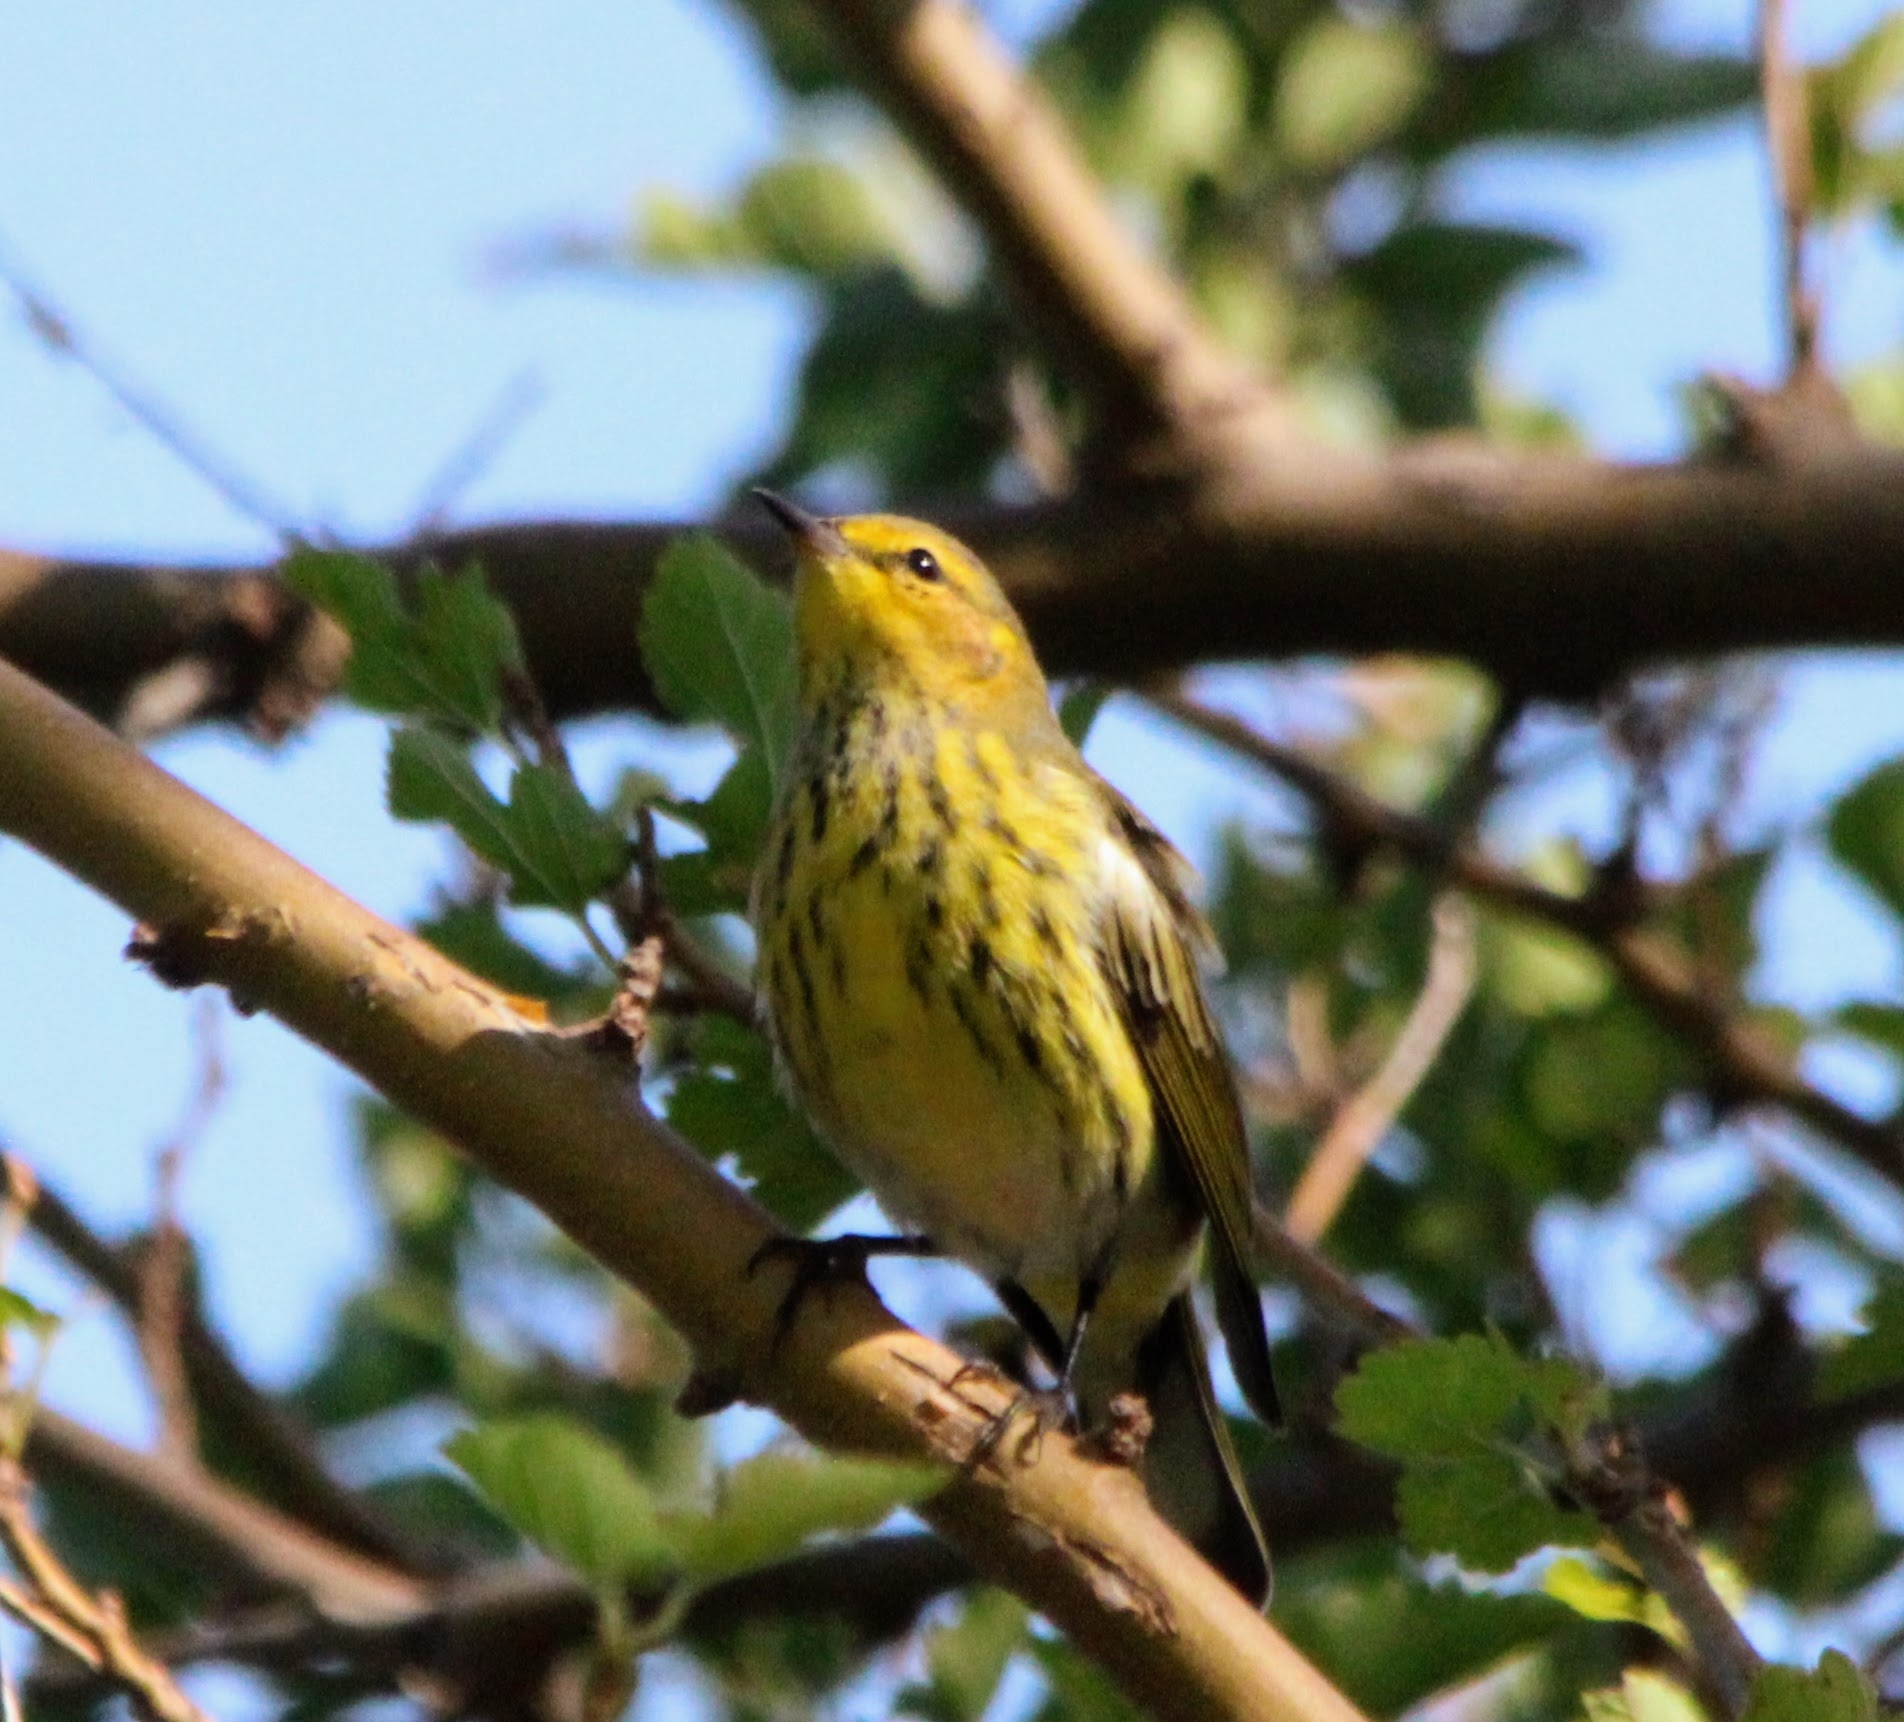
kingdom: Animalia
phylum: Chordata
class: Aves
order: Passeriformes
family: Parulidae
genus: Setophaga
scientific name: Setophaga tigrina
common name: Cape may warbler
